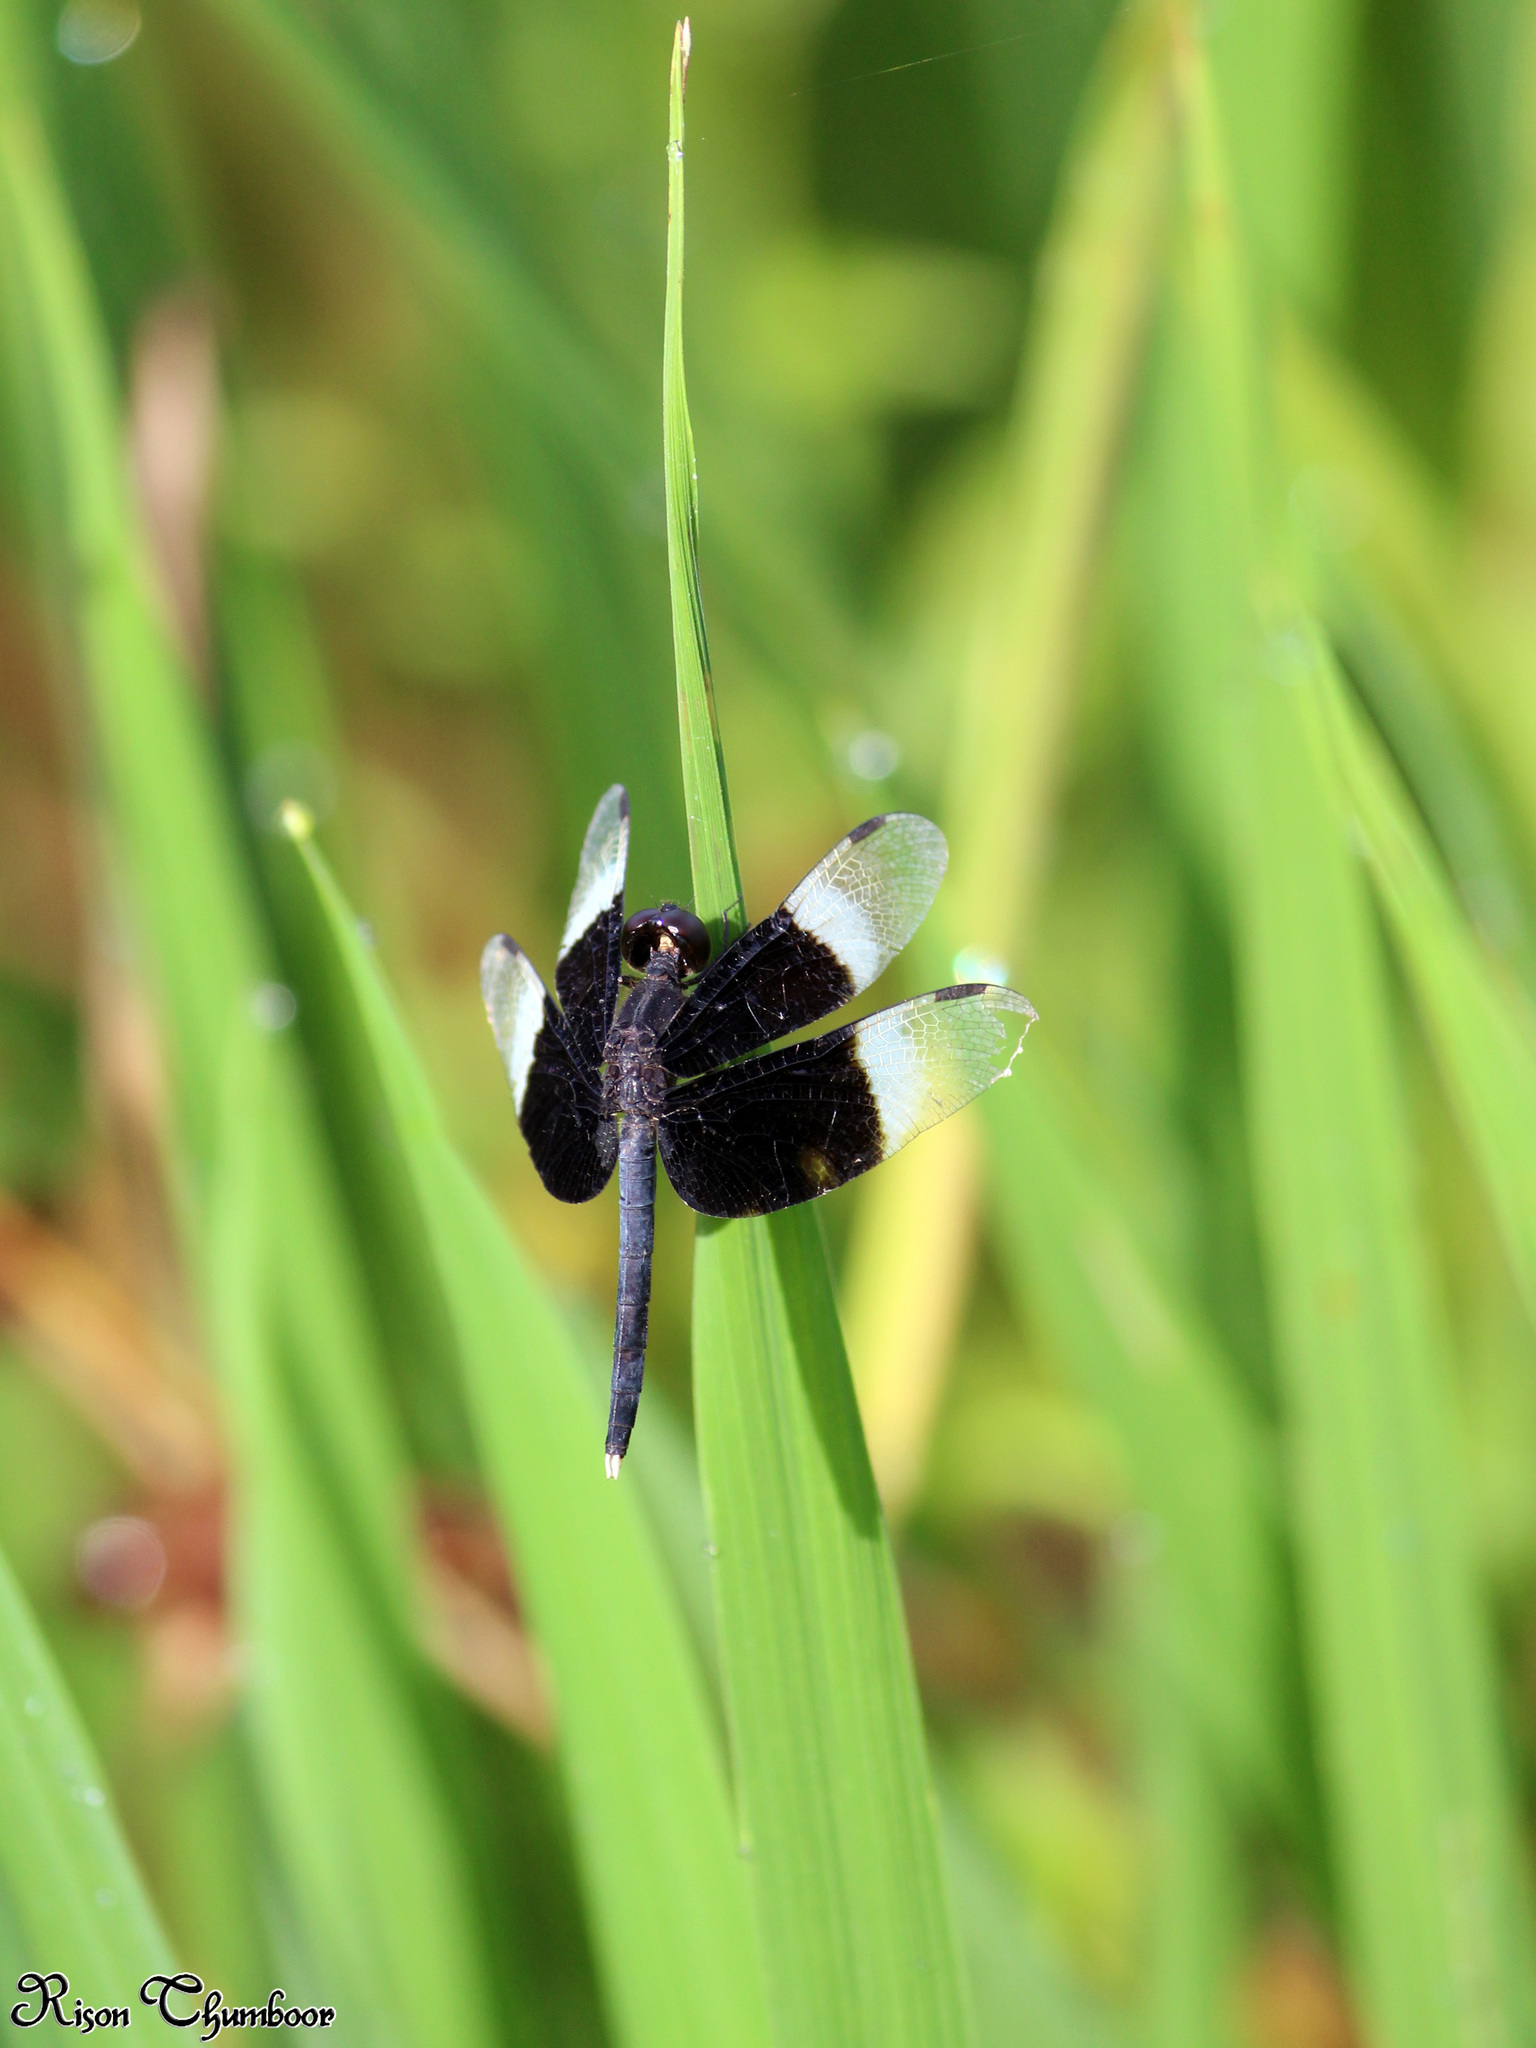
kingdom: Animalia
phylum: Arthropoda
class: Insecta
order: Odonata
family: Libellulidae
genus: Neurothemis
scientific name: Neurothemis tullia
